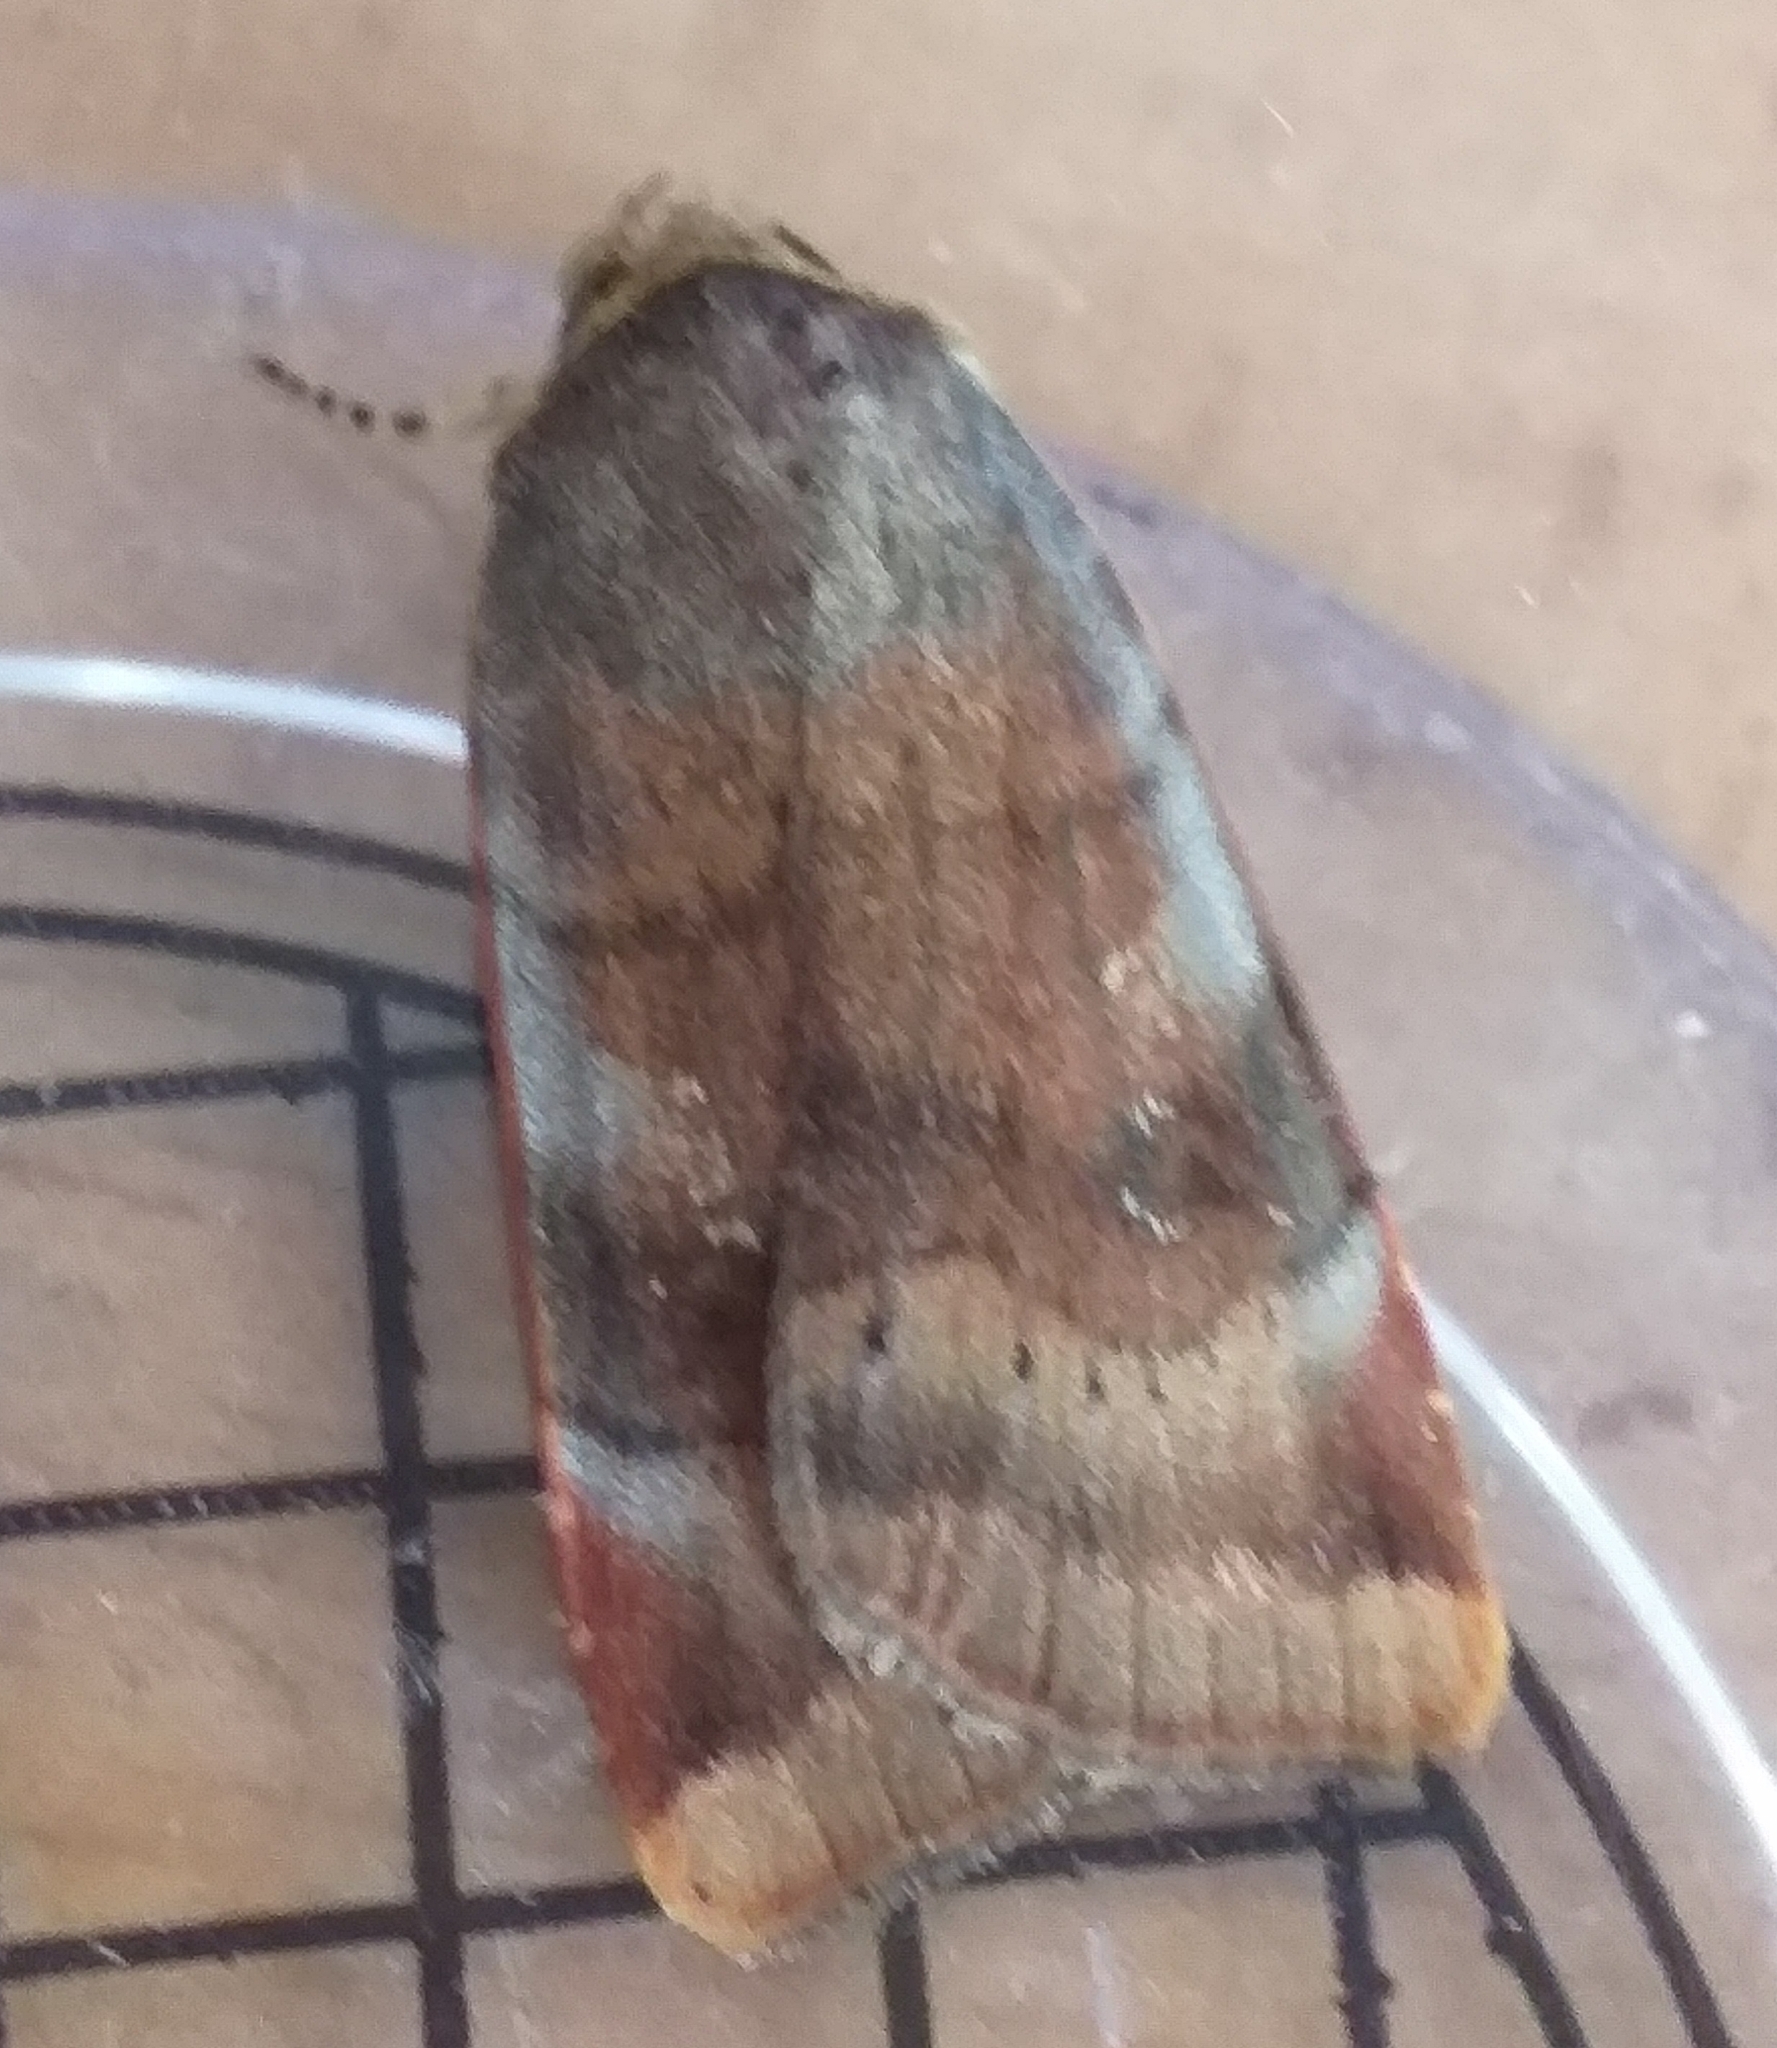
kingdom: Animalia
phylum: Arthropoda
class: Insecta
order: Lepidoptera
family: Noctuidae
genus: Noctua
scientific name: Noctua janthe
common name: Lesser broad-bordered yellow underwing
